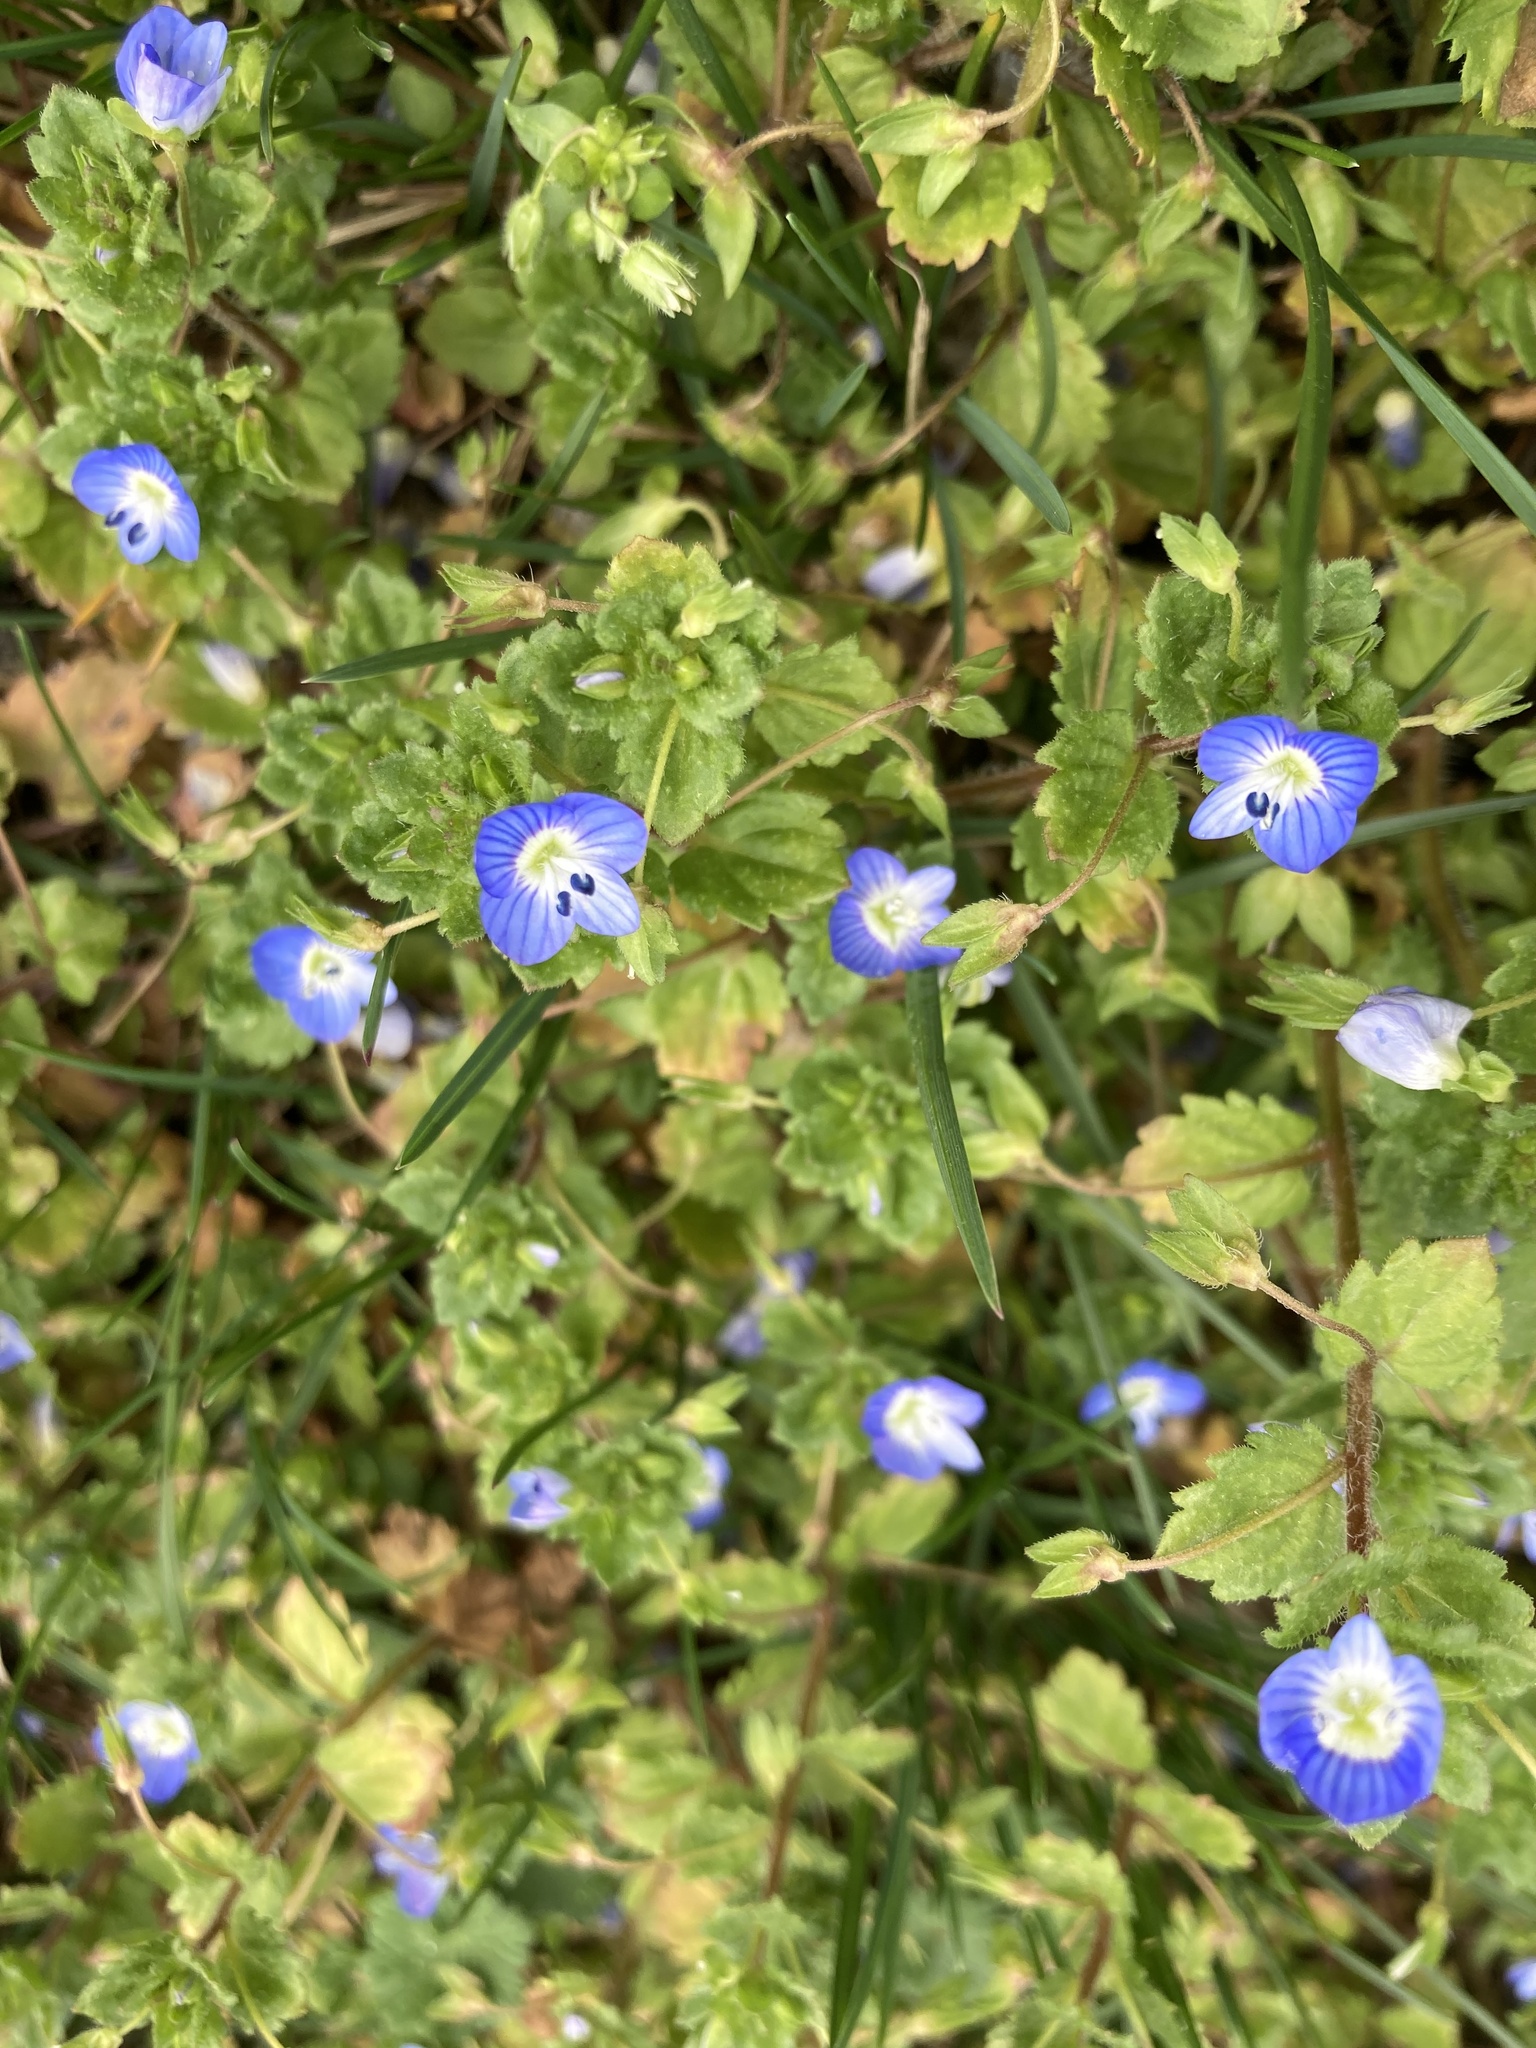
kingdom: Plantae
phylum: Tracheophyta
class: Magnoliopsida
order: Lamiales
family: Plantaginaceae
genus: Veronica
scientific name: Veronica persica
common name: Common field-speedwell
